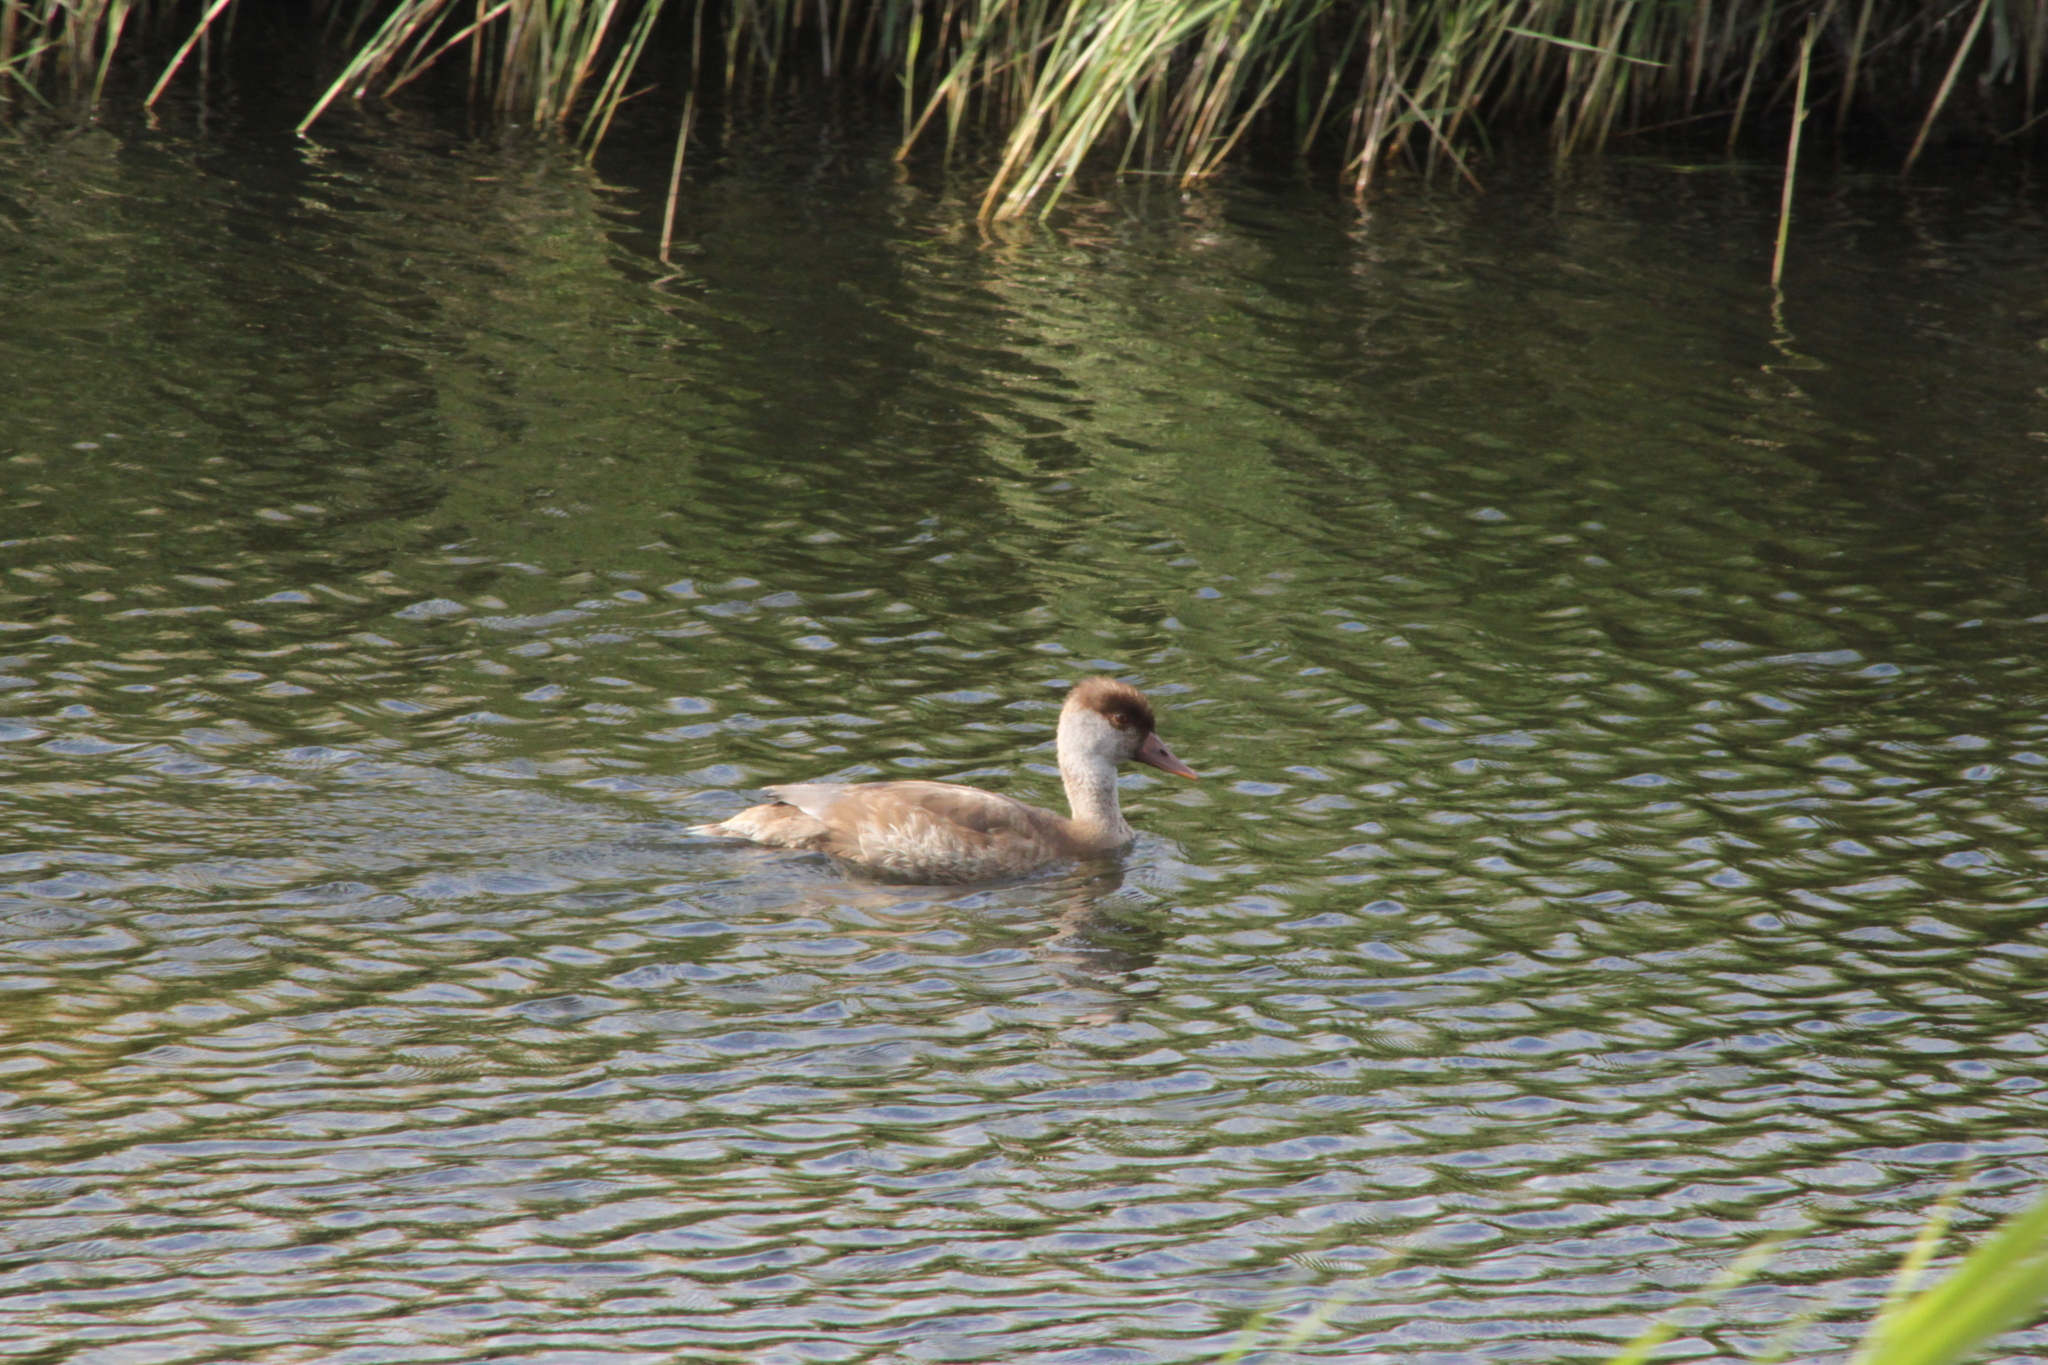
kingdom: Animalia
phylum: Chordata
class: Aves
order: Anseriformes
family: Anatidae
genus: Netta
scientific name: Netta rufina
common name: Red-crested pochard
